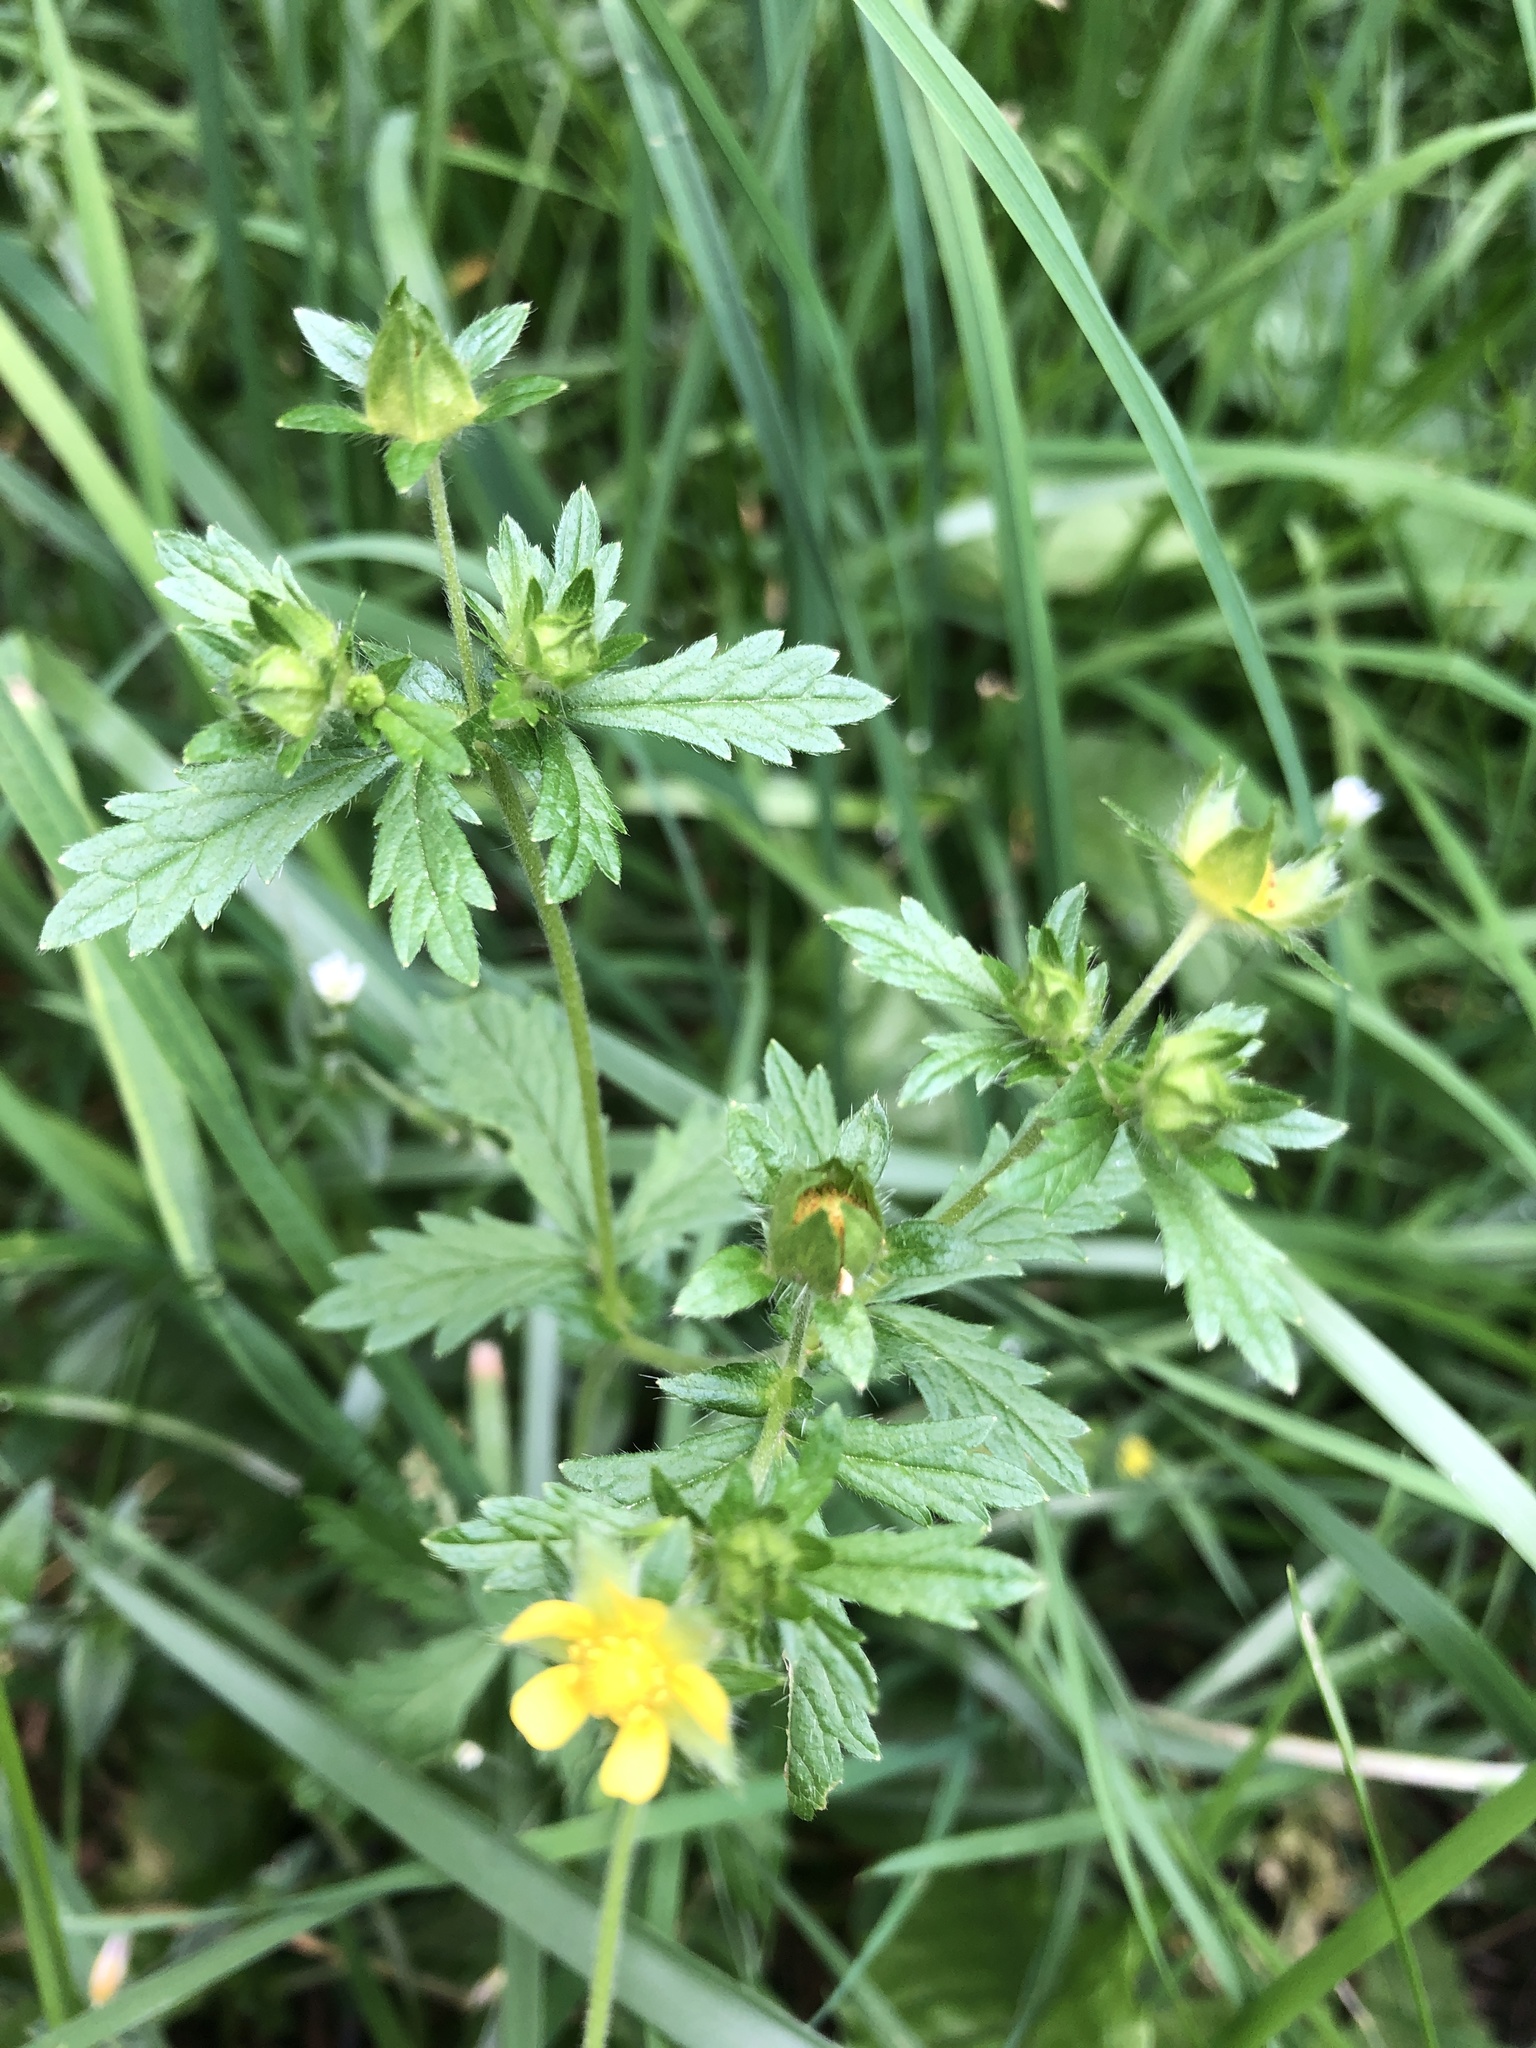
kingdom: Plantae
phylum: Tracheophyta
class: Magnoliopsida
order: Rosales
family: Rosaceae
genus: Potentilla
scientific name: Potentilla norvegica
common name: Ternate-leaved cinquefoil
